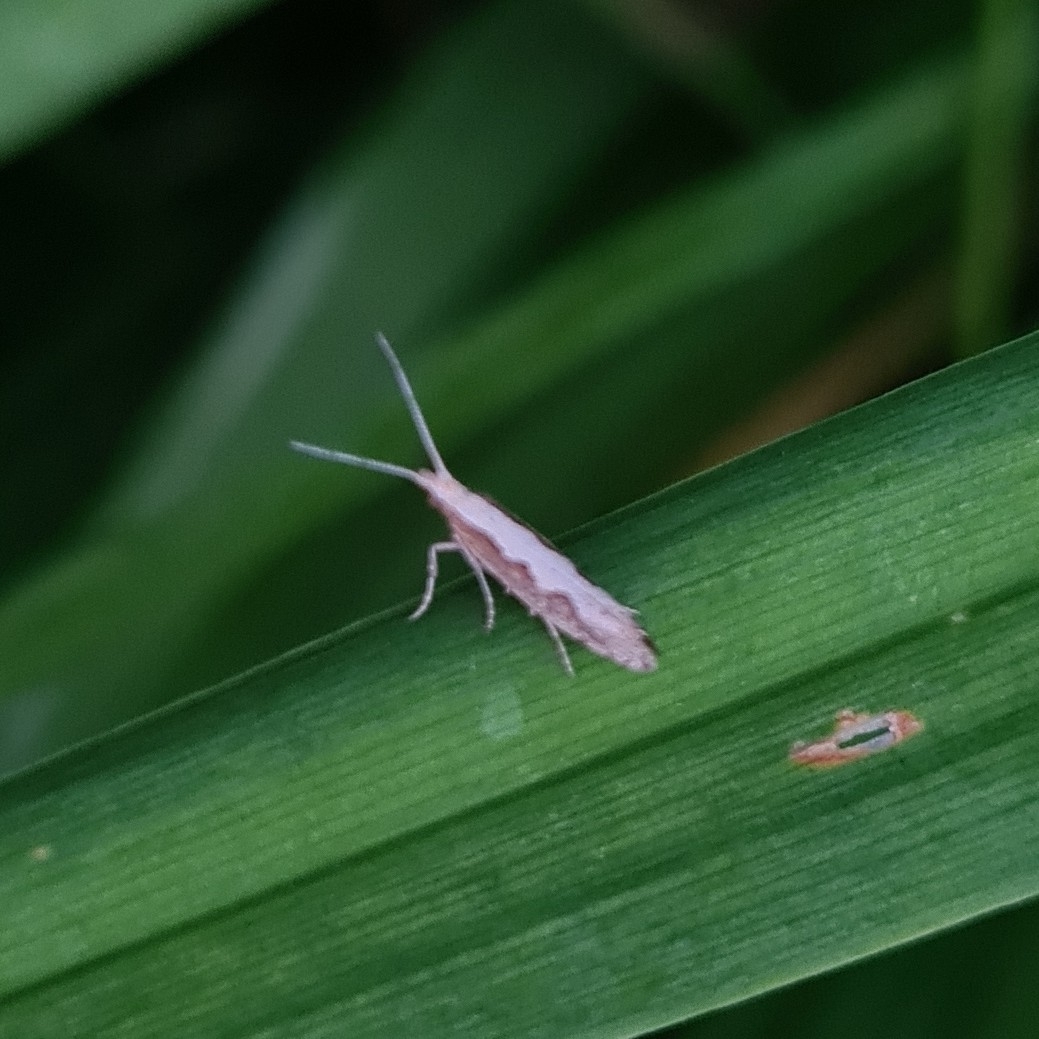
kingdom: Animalia
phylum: Arthropoda
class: Insecta
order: Lepidoptera
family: Plutellidae
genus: Plutella
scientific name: Plutella xylostella
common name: Diamond-back moth
